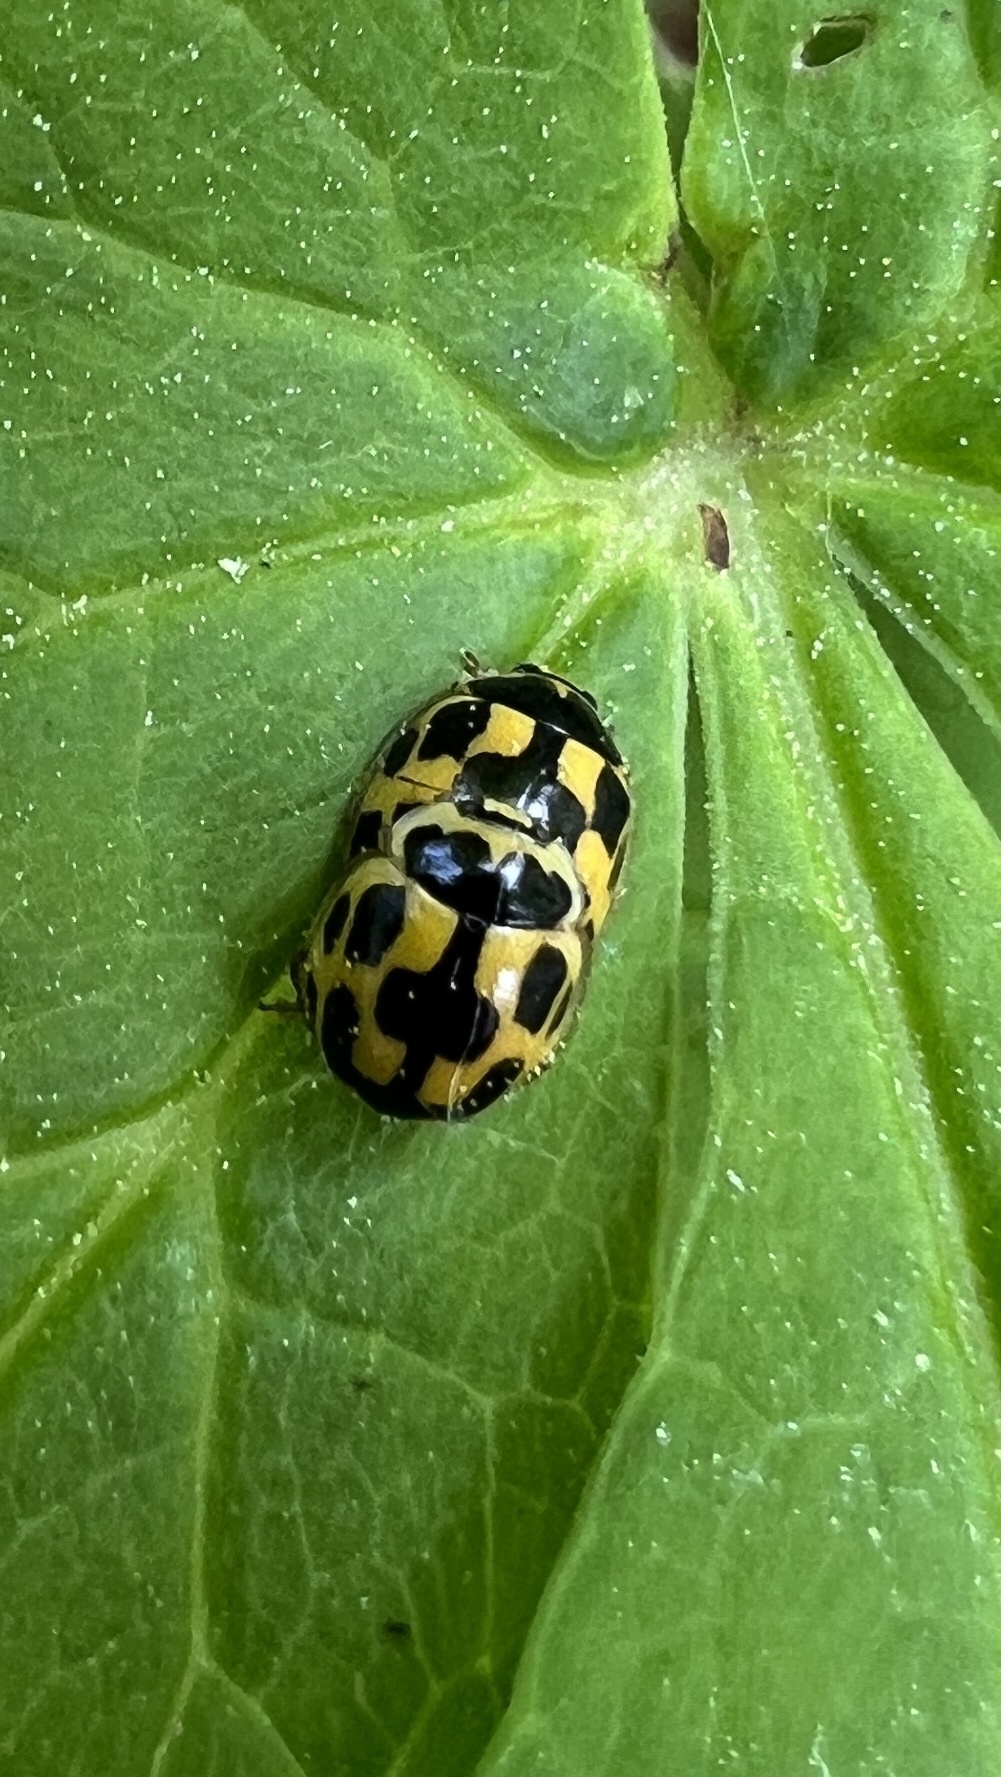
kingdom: Animalia
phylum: Arthropoda
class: Insecta
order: Coleoptera
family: Coccinellidae
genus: Propylaea
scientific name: Propylaea quatuordecimpunctata
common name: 14-spotted ladybird beetle
